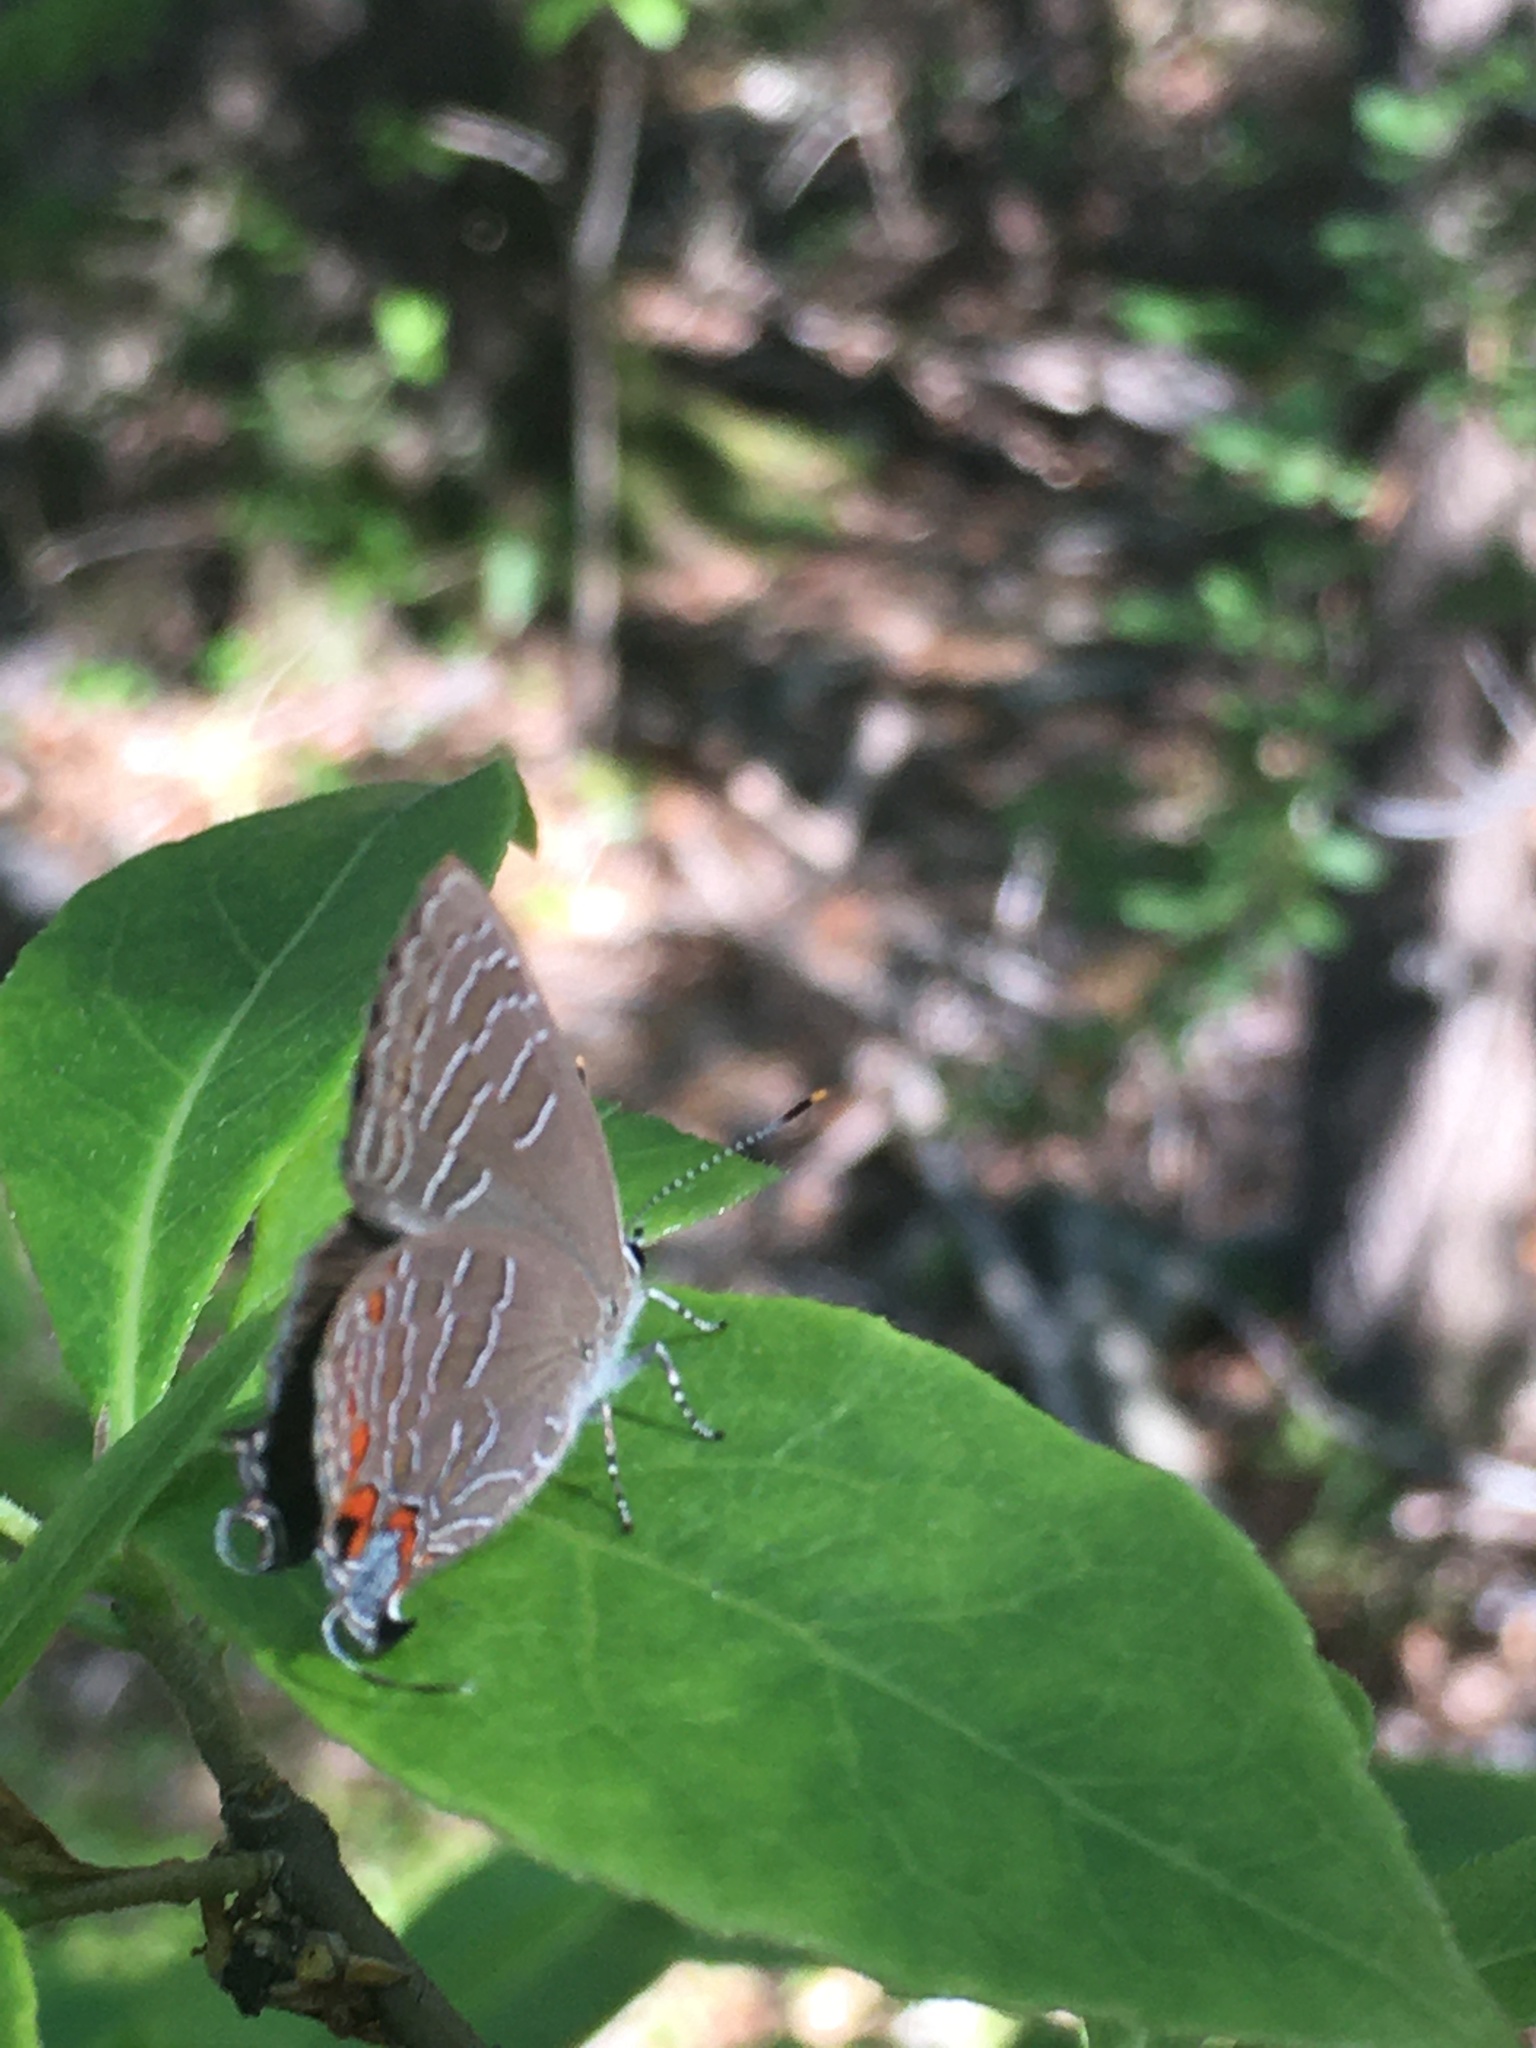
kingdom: Animalia
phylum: Arthropoda
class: Insecta
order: Lepidoptera
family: Lycaenidae
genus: Satyrium
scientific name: Satyrium liparops
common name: Striped hairstreak
